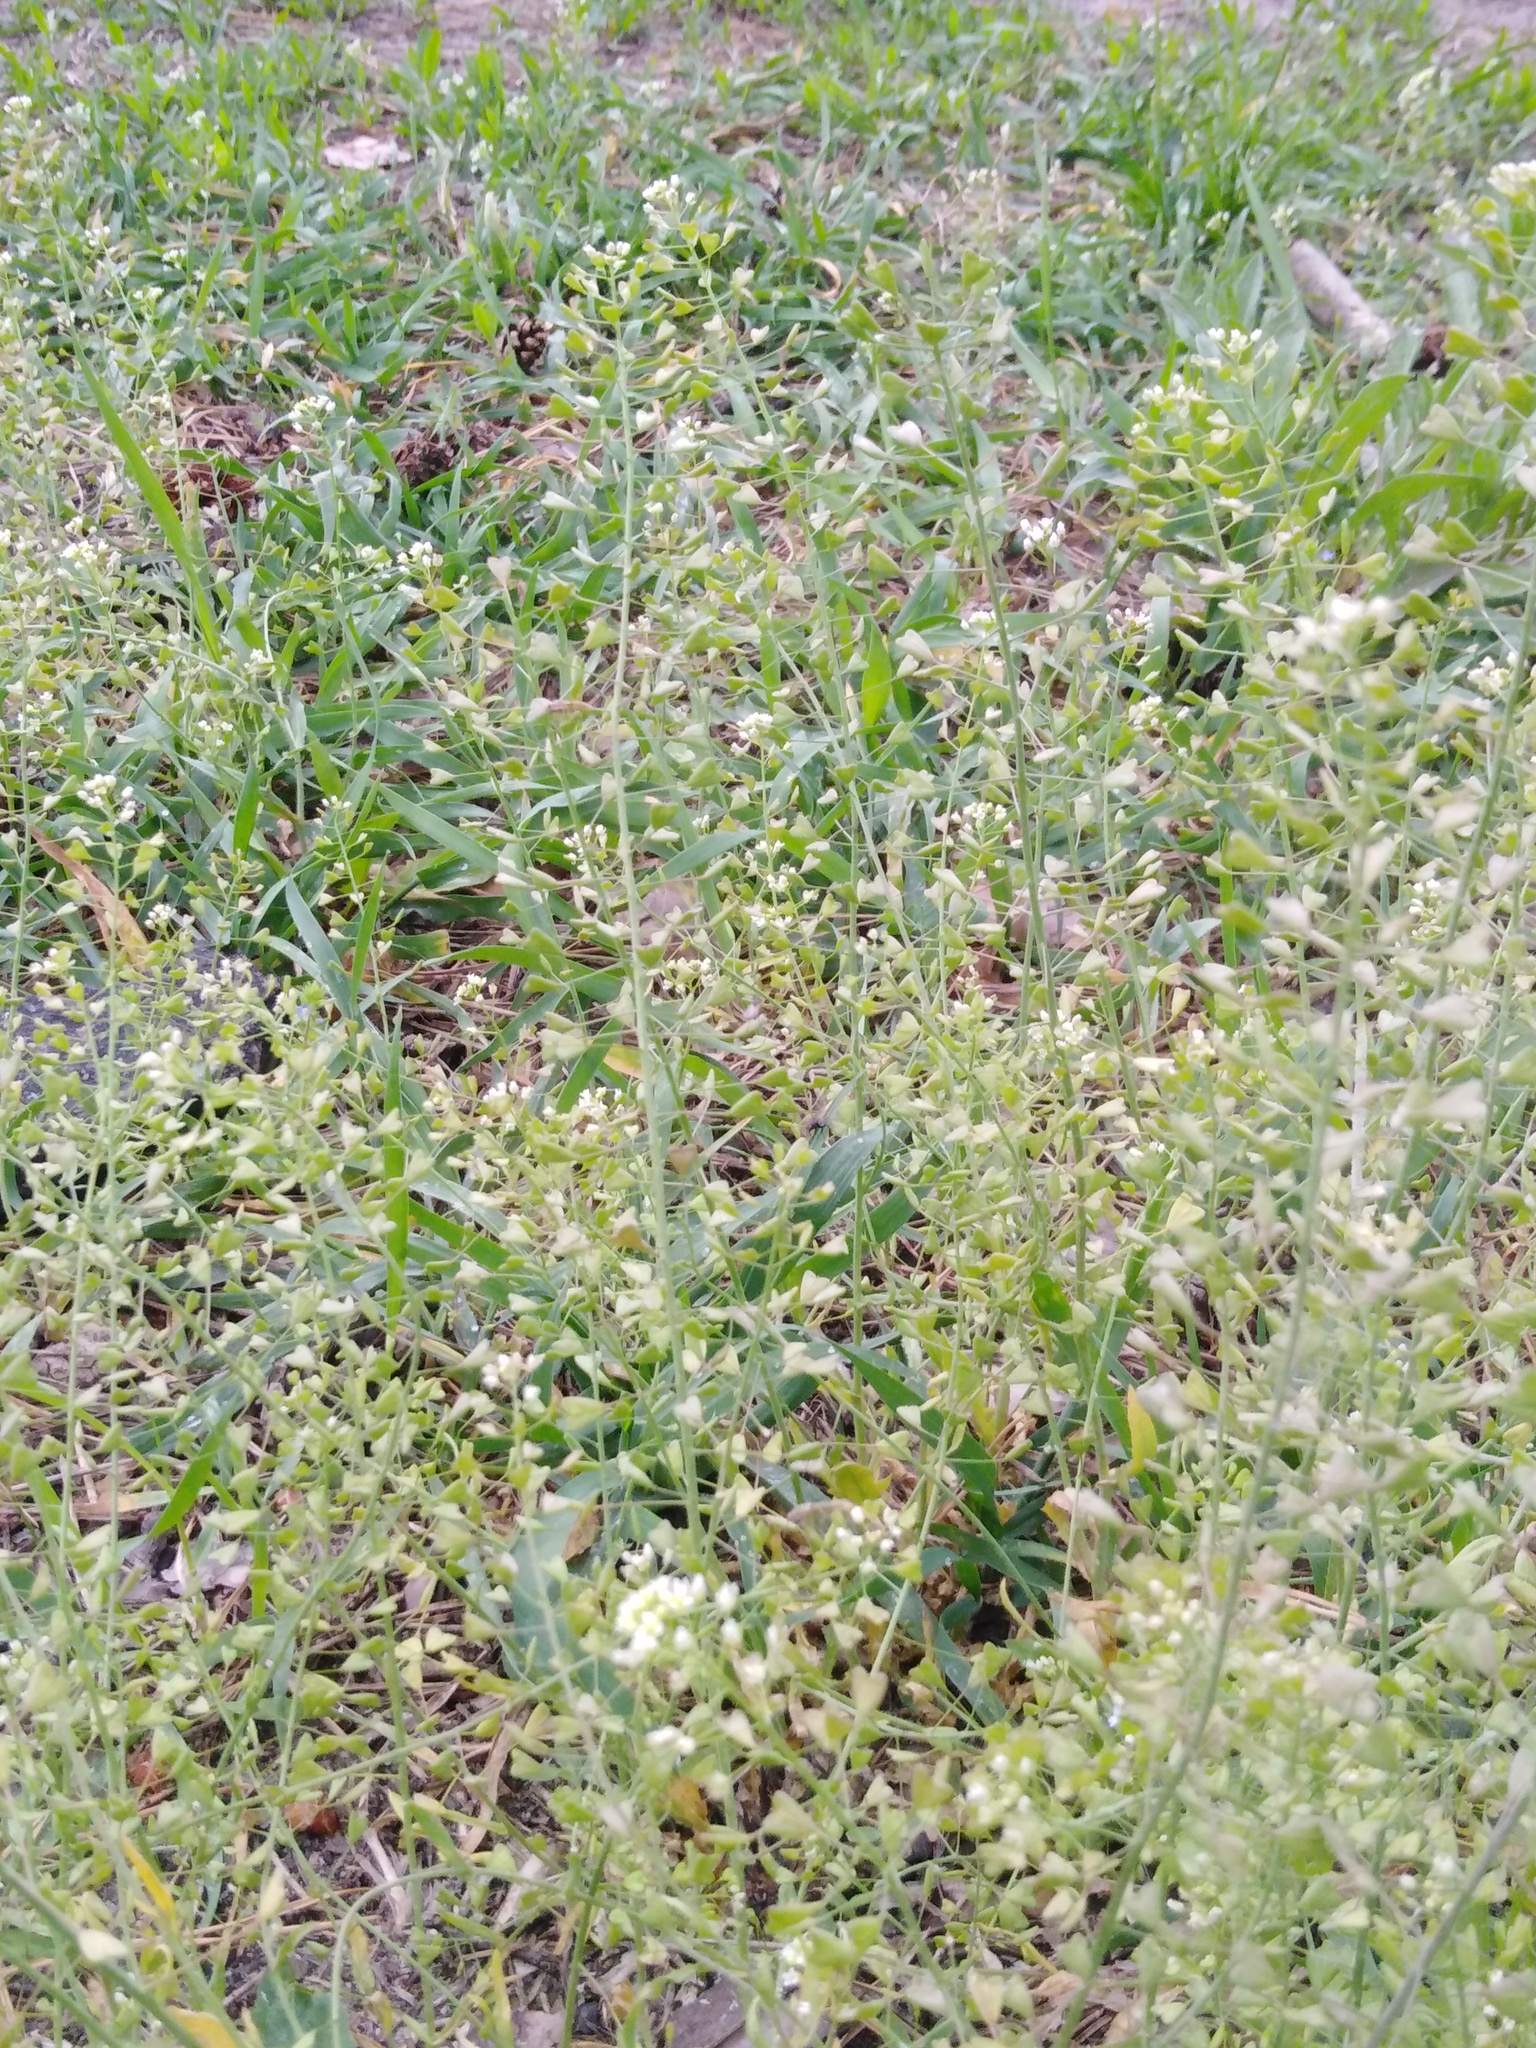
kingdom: Plantae
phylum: Tracheophyta
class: Magnoliopsida
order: Brassicales
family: Brassicaceae
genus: Capsella
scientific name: Capsella bursa-pastoris
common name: Shepherd's purse
